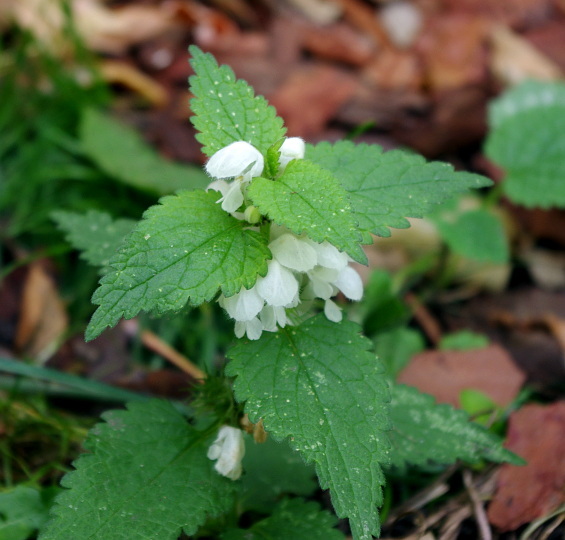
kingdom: Plantae
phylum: Tracheophyta
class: Magnoliopsida
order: Lamiales
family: Lamiaceae
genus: Lamium
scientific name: Lamium album
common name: White dead-nettle
